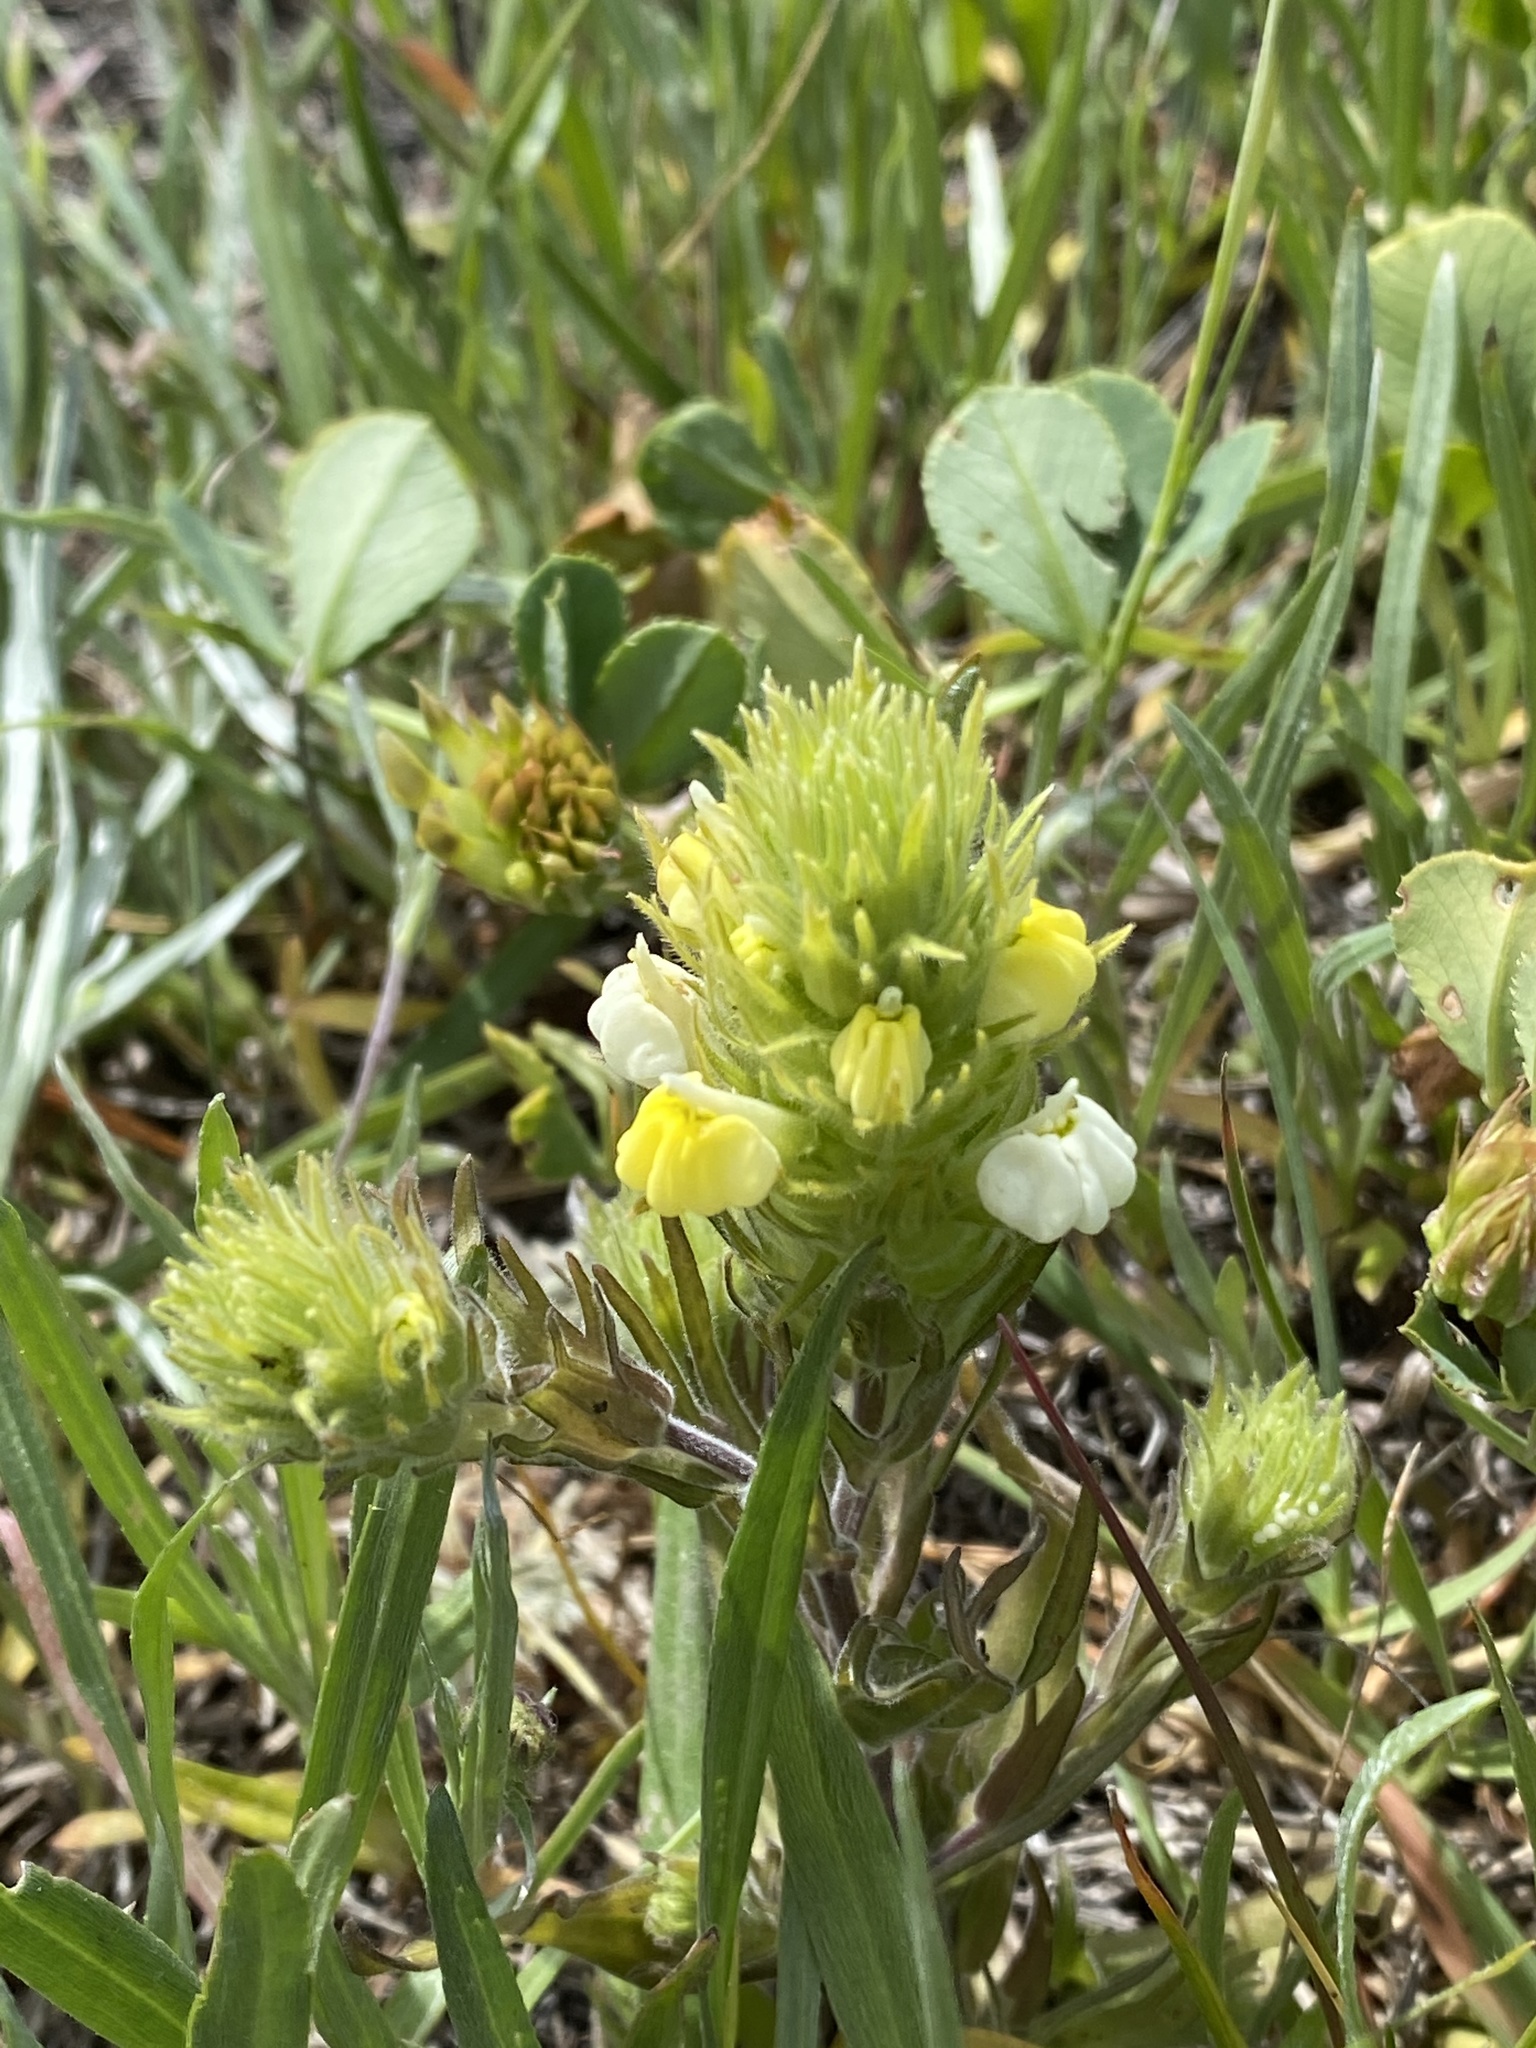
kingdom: Plantae
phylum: Tracheophyta
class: Magnoliopsida
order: Lamiales
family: Orobanchaceae
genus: Castilleja
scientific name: Castilleja rubicundula
